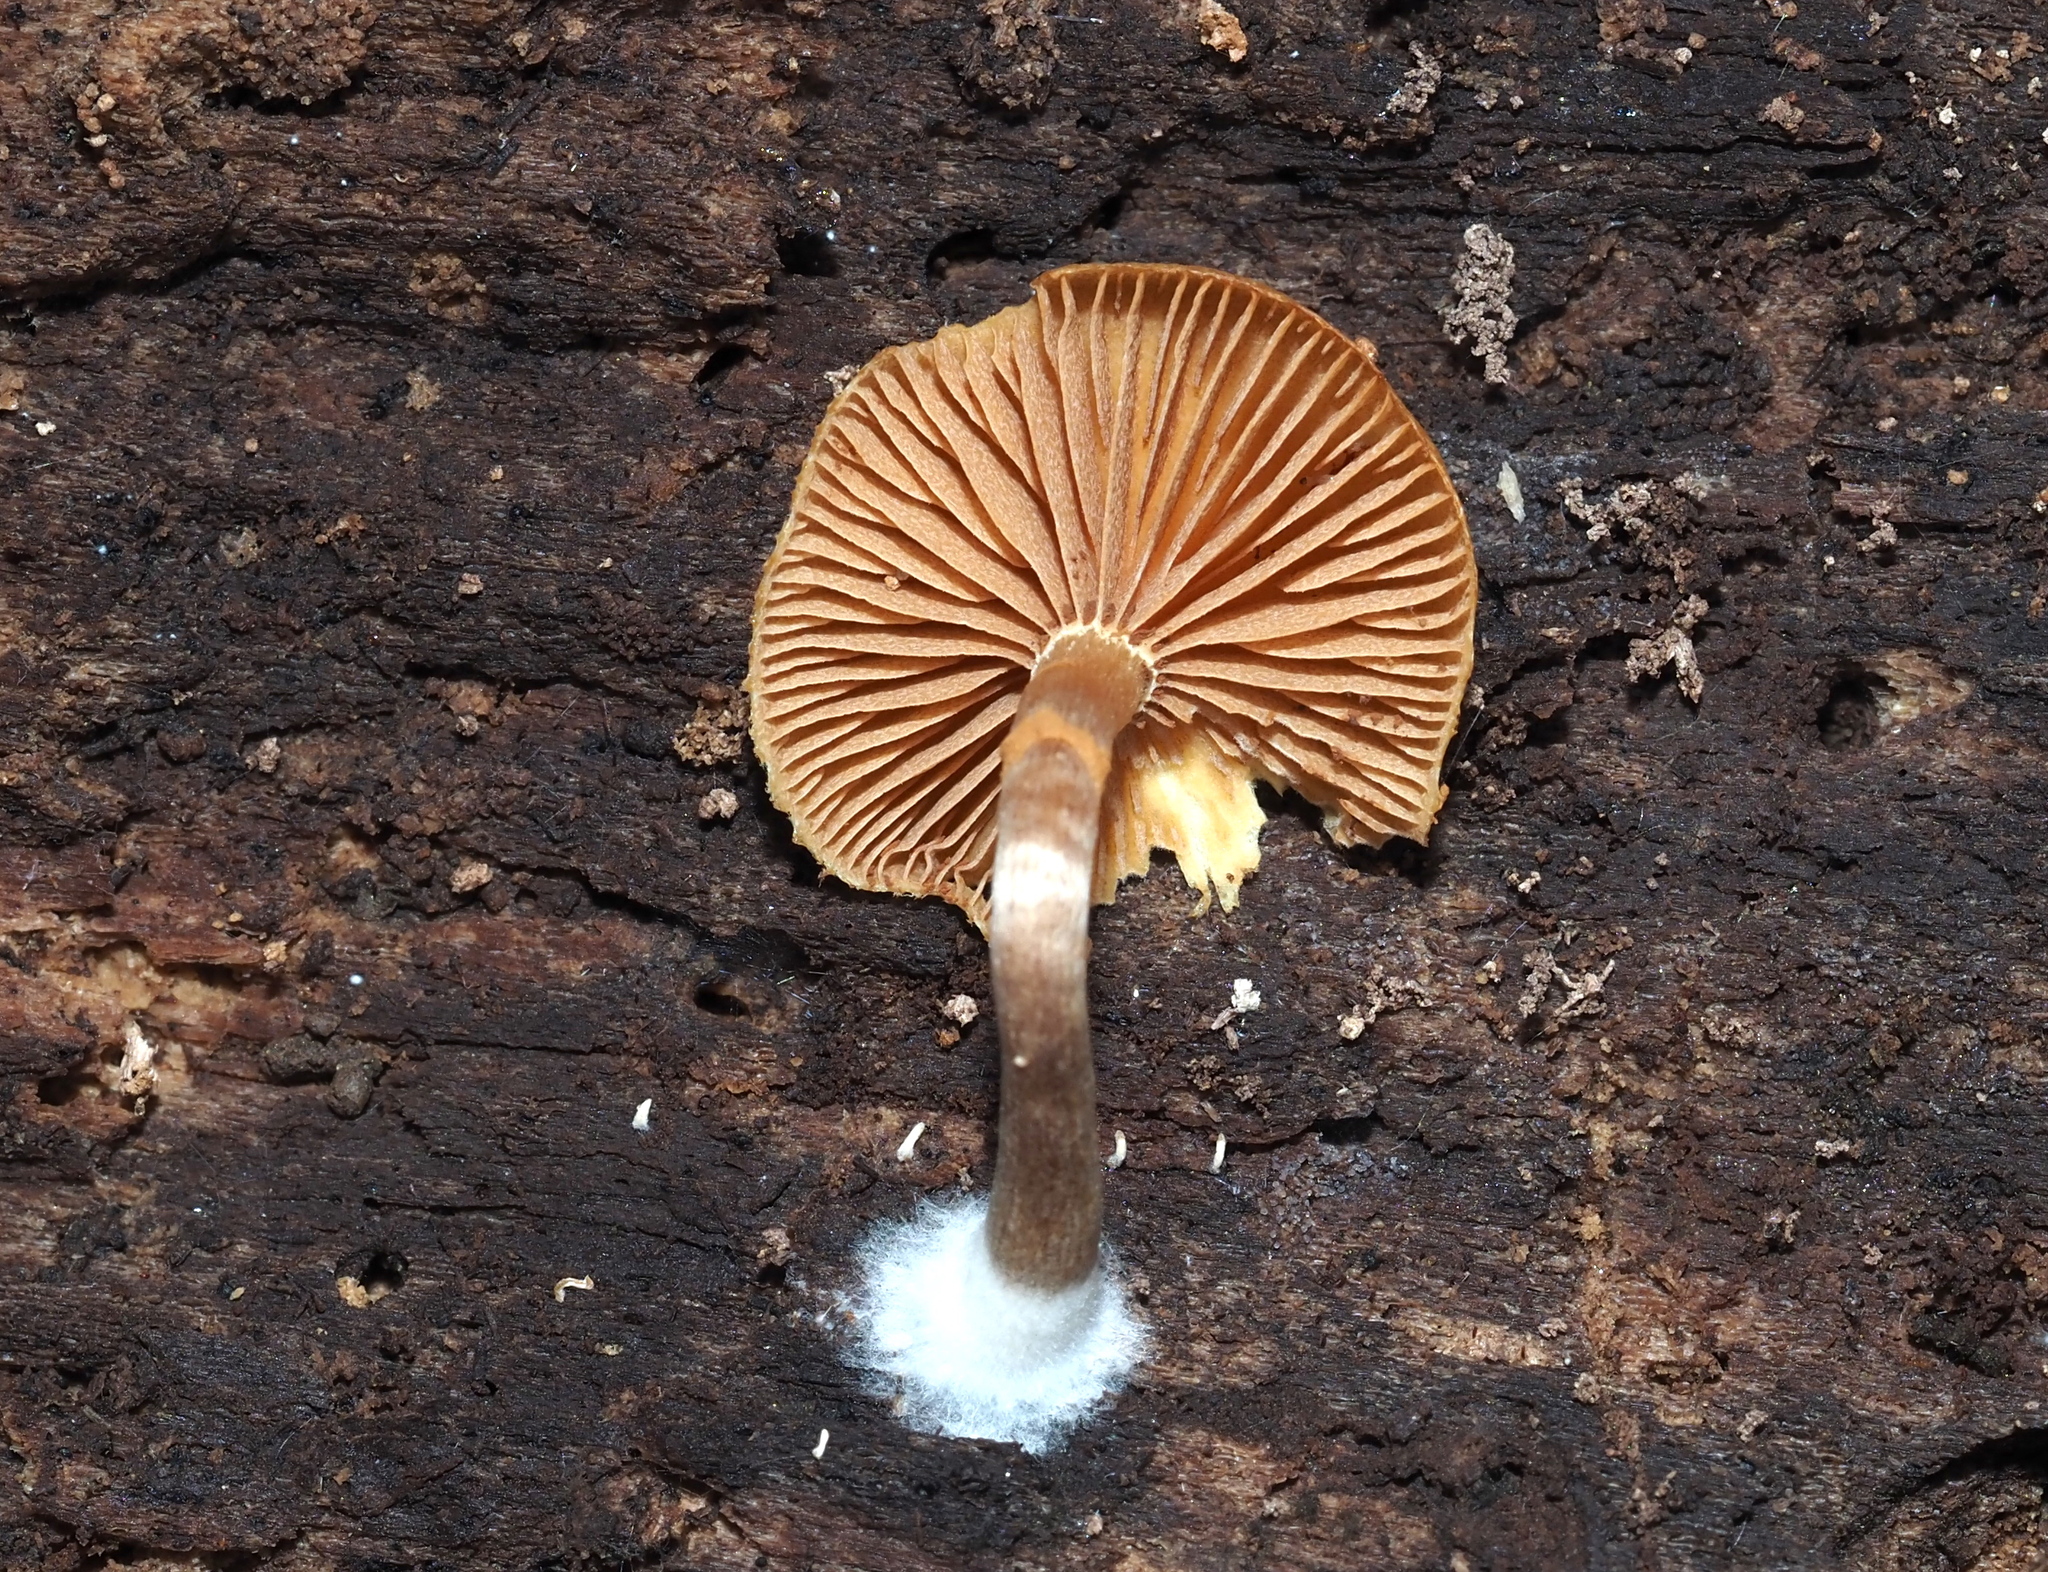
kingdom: Fungi
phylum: Basidiomycota
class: Agaricomycetes
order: Agaricales
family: Hymenogastraceae
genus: Galerina
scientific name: Galerina marginata
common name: Funeral bell
